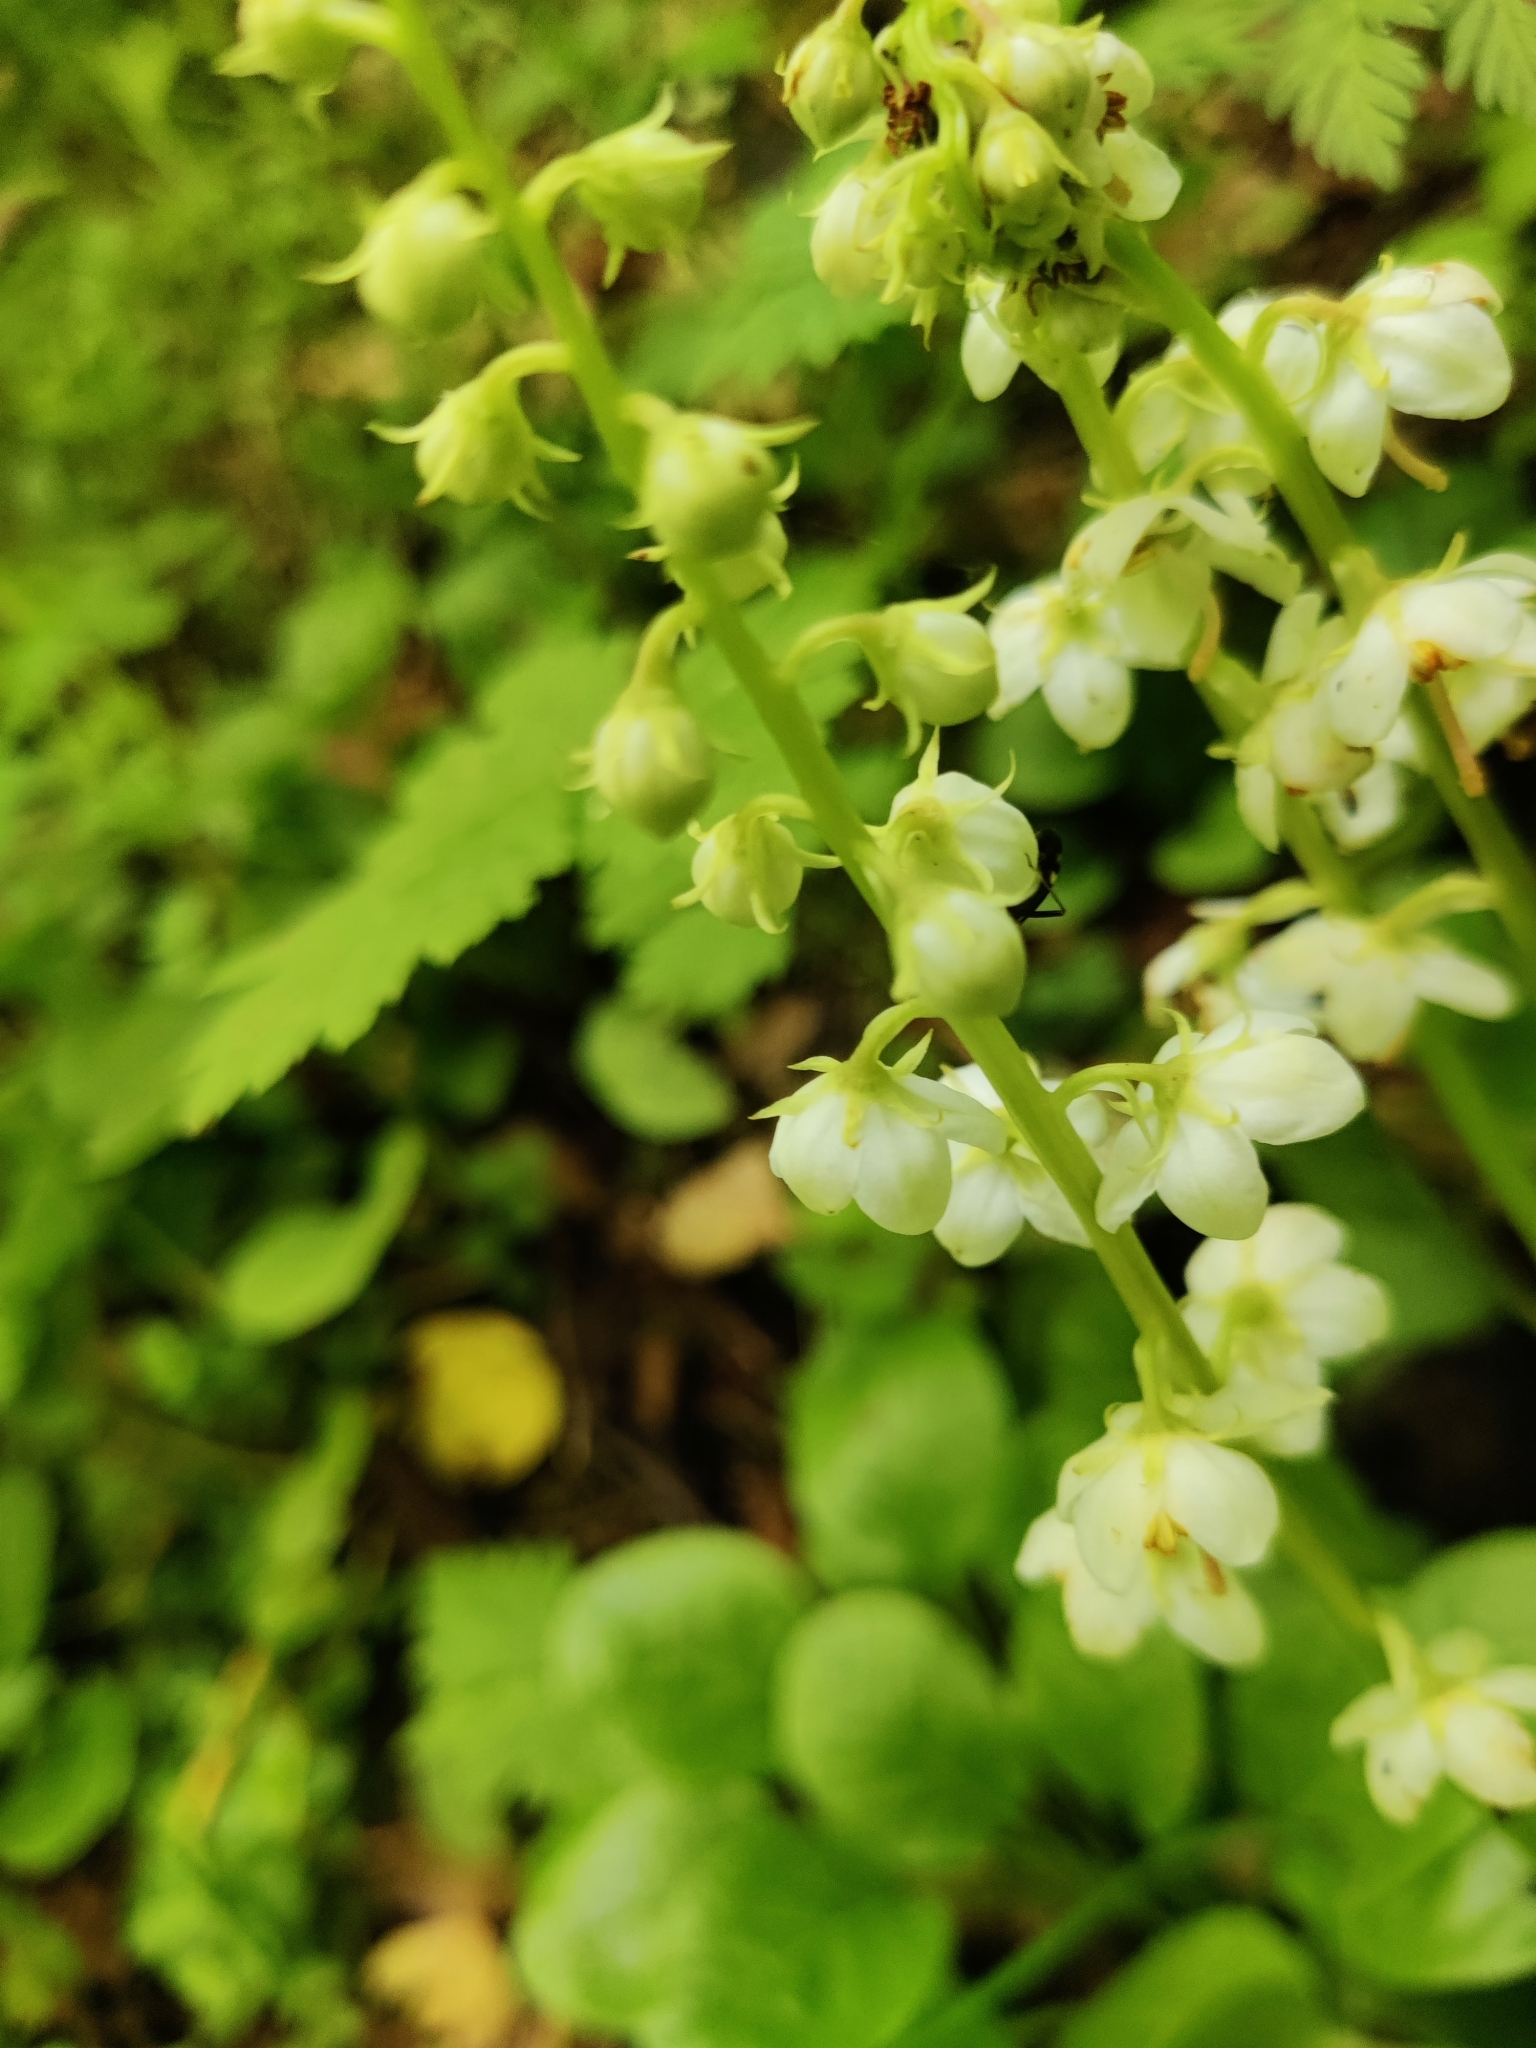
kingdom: Plantae
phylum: Tracheophyta
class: Magnoliopsida
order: Ericales
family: Ericaceae
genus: Pyrola
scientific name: Pyrola rotundifolia
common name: Round-leaved wintergreen
